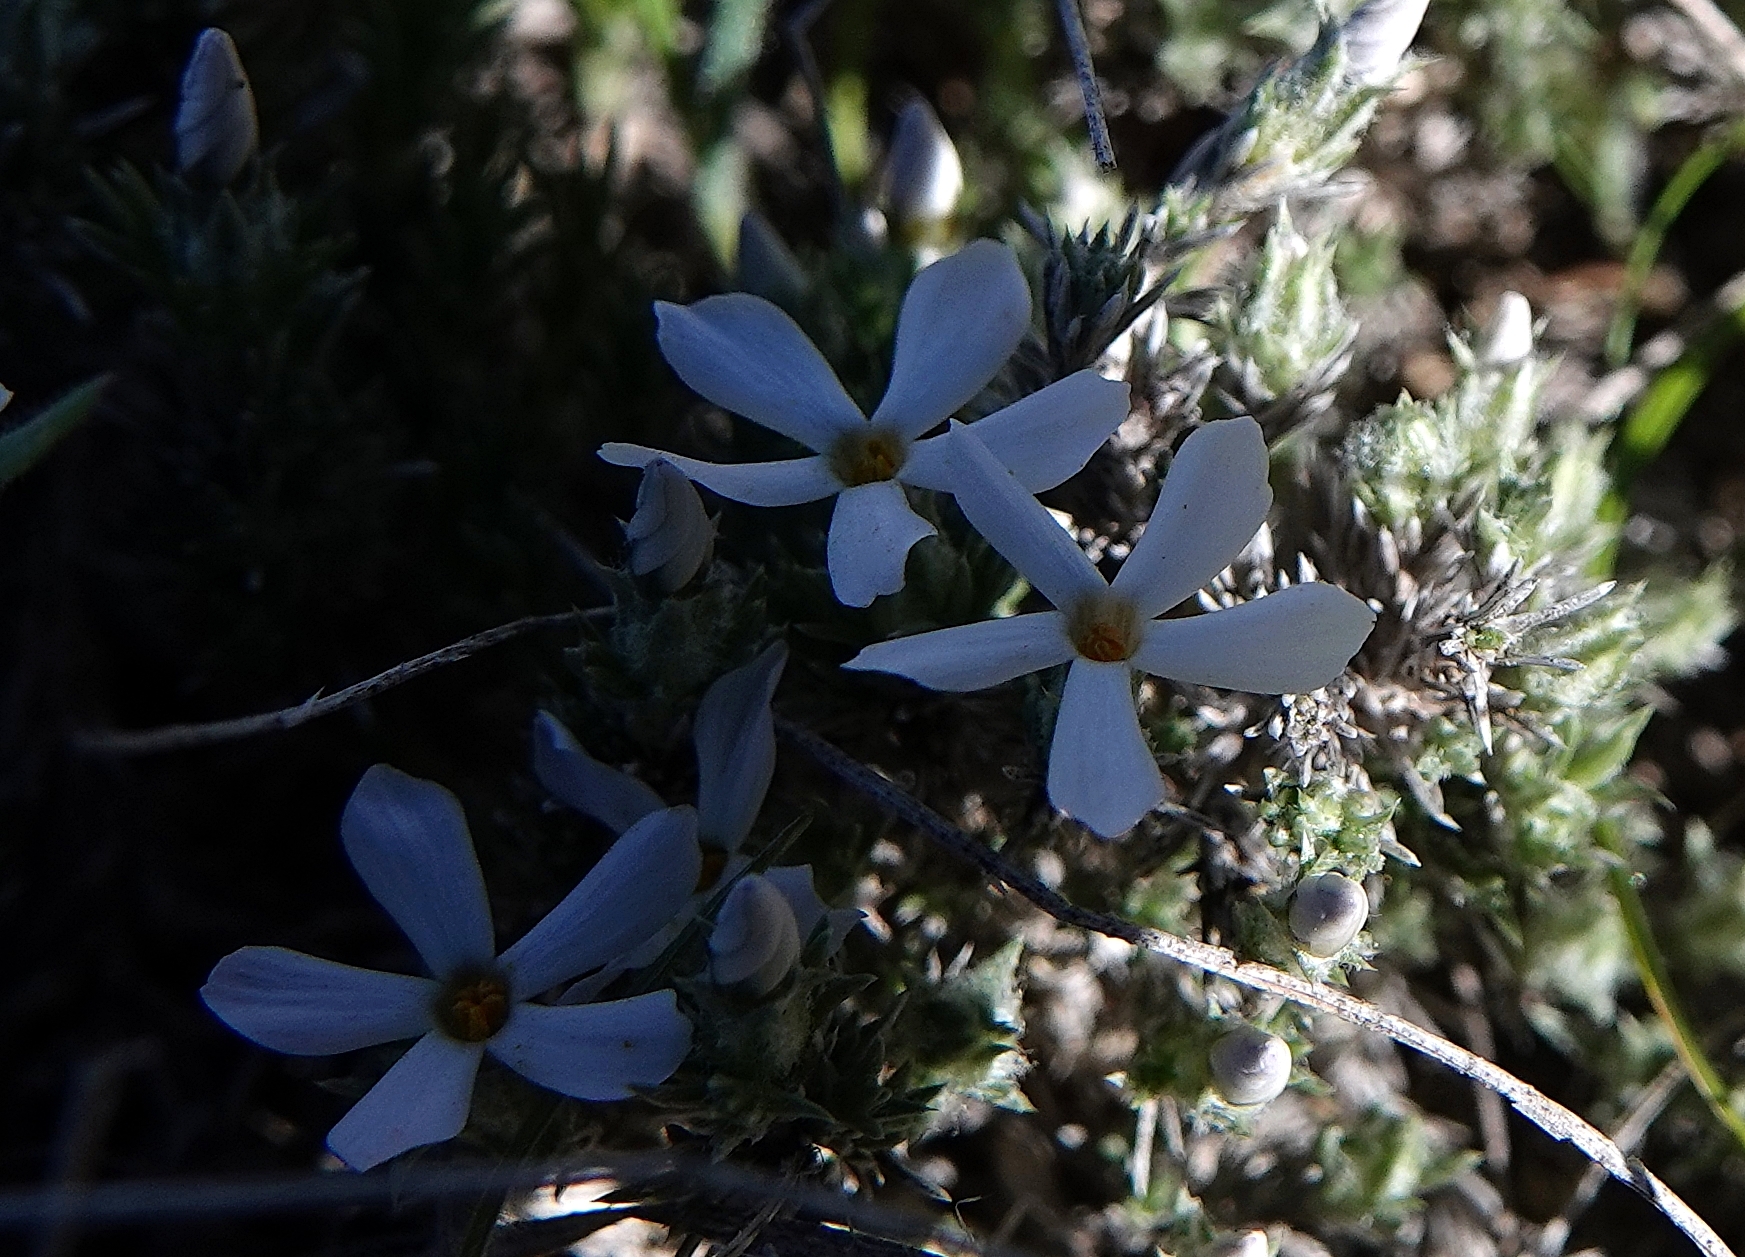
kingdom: Plantae
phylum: Tracheophyta
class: Magnoliopsida
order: Ericales
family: Polemoniaceae
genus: Phlox
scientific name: Phlox hoodii
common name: Moss phlox
